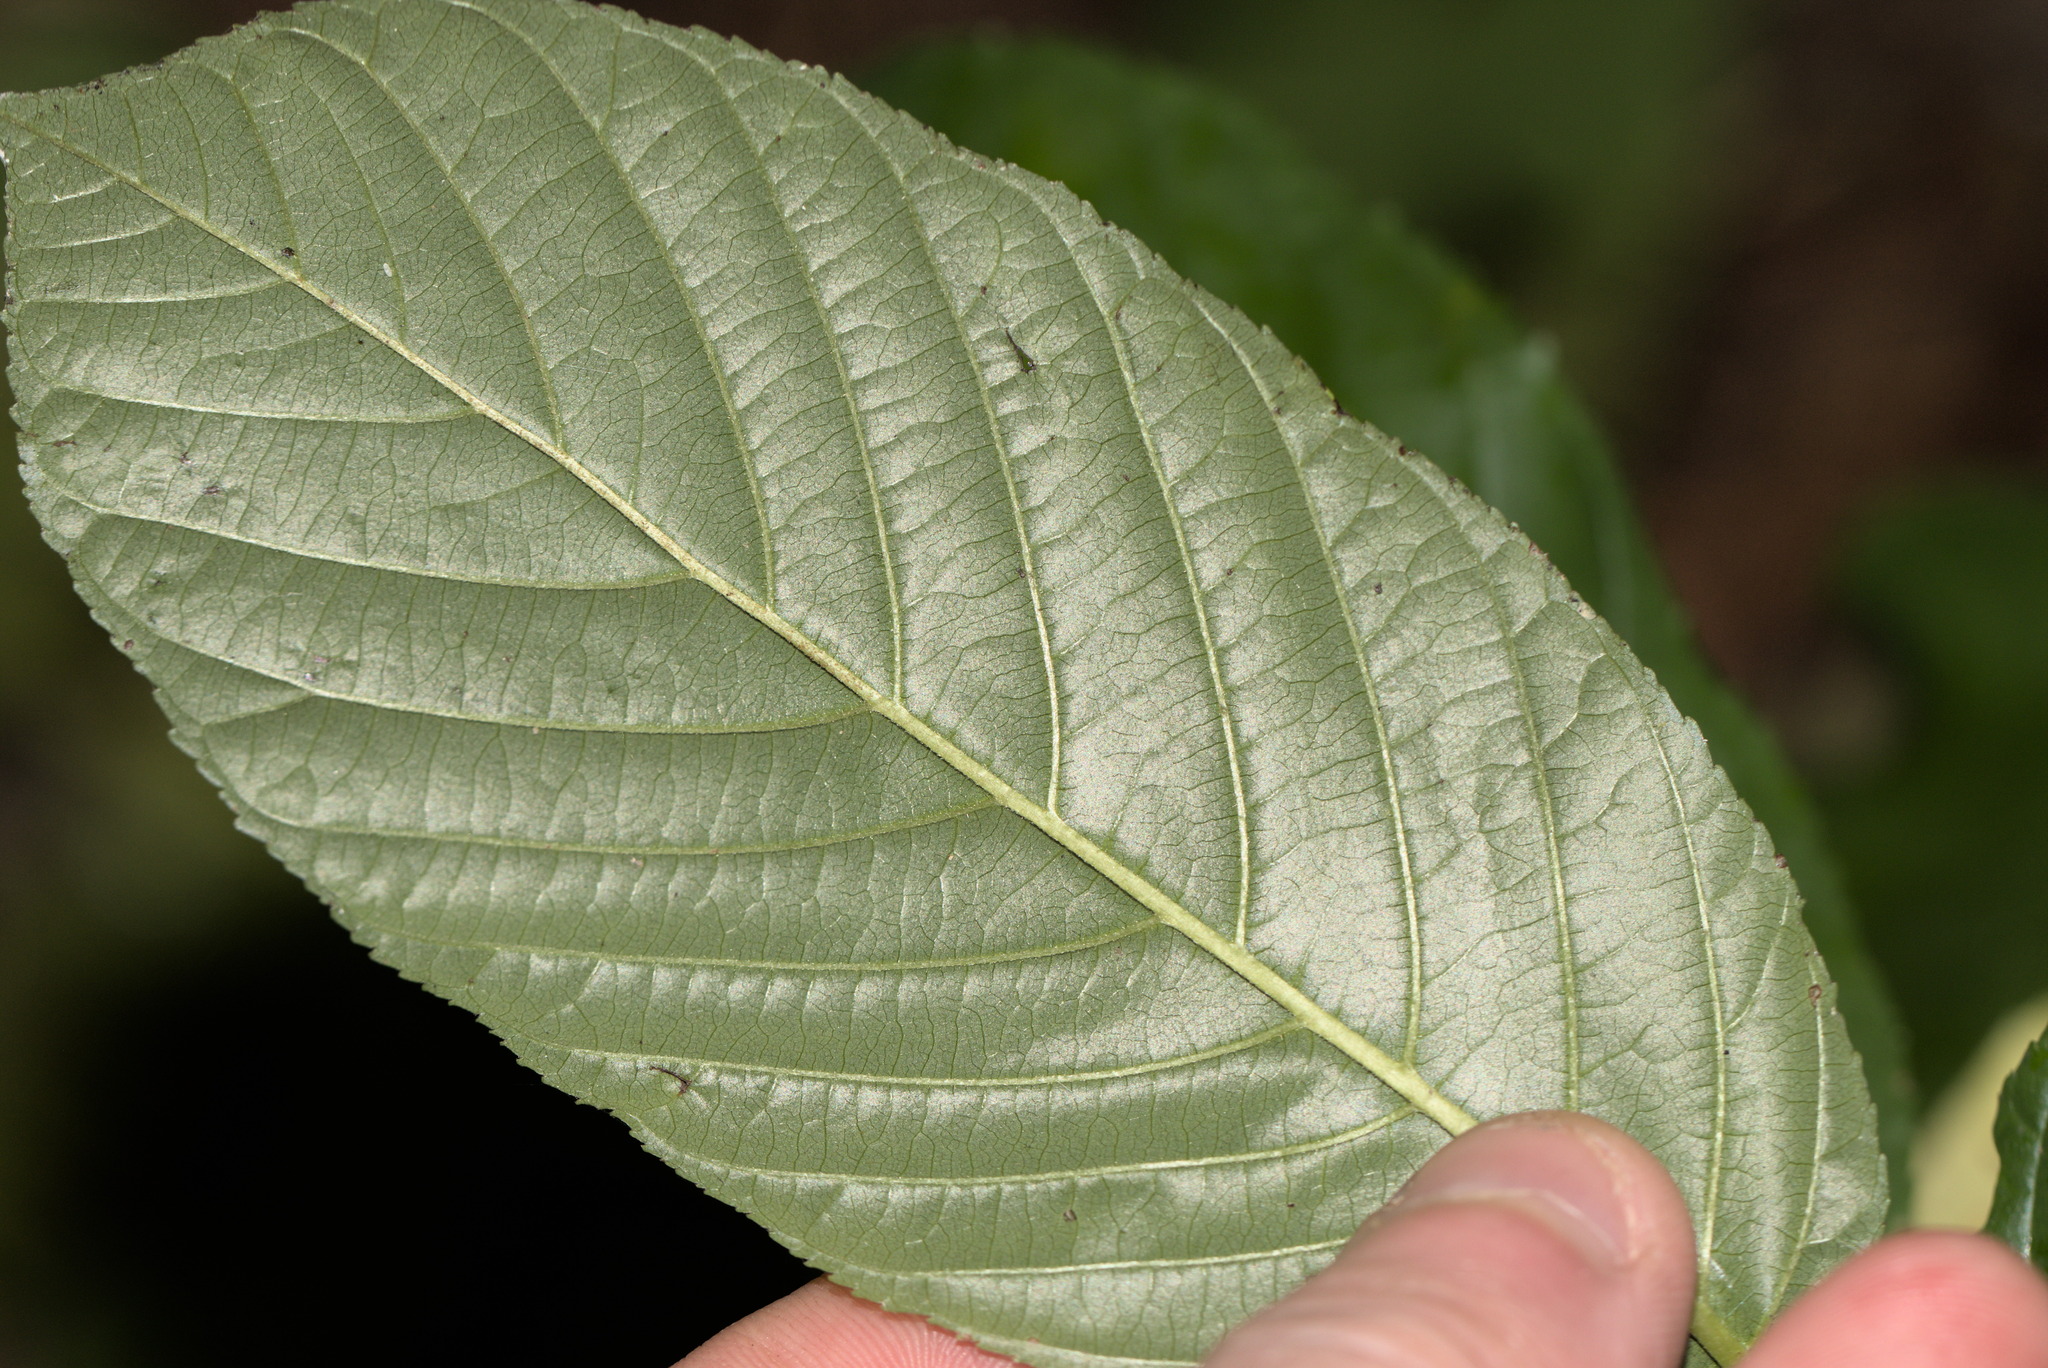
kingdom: Plantae
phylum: Tracheophyta
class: Magnoliopsida
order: Rosales
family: Rhamnaceae
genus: Frangula
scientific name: Frangula purshiana
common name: Cascara buckthorn
